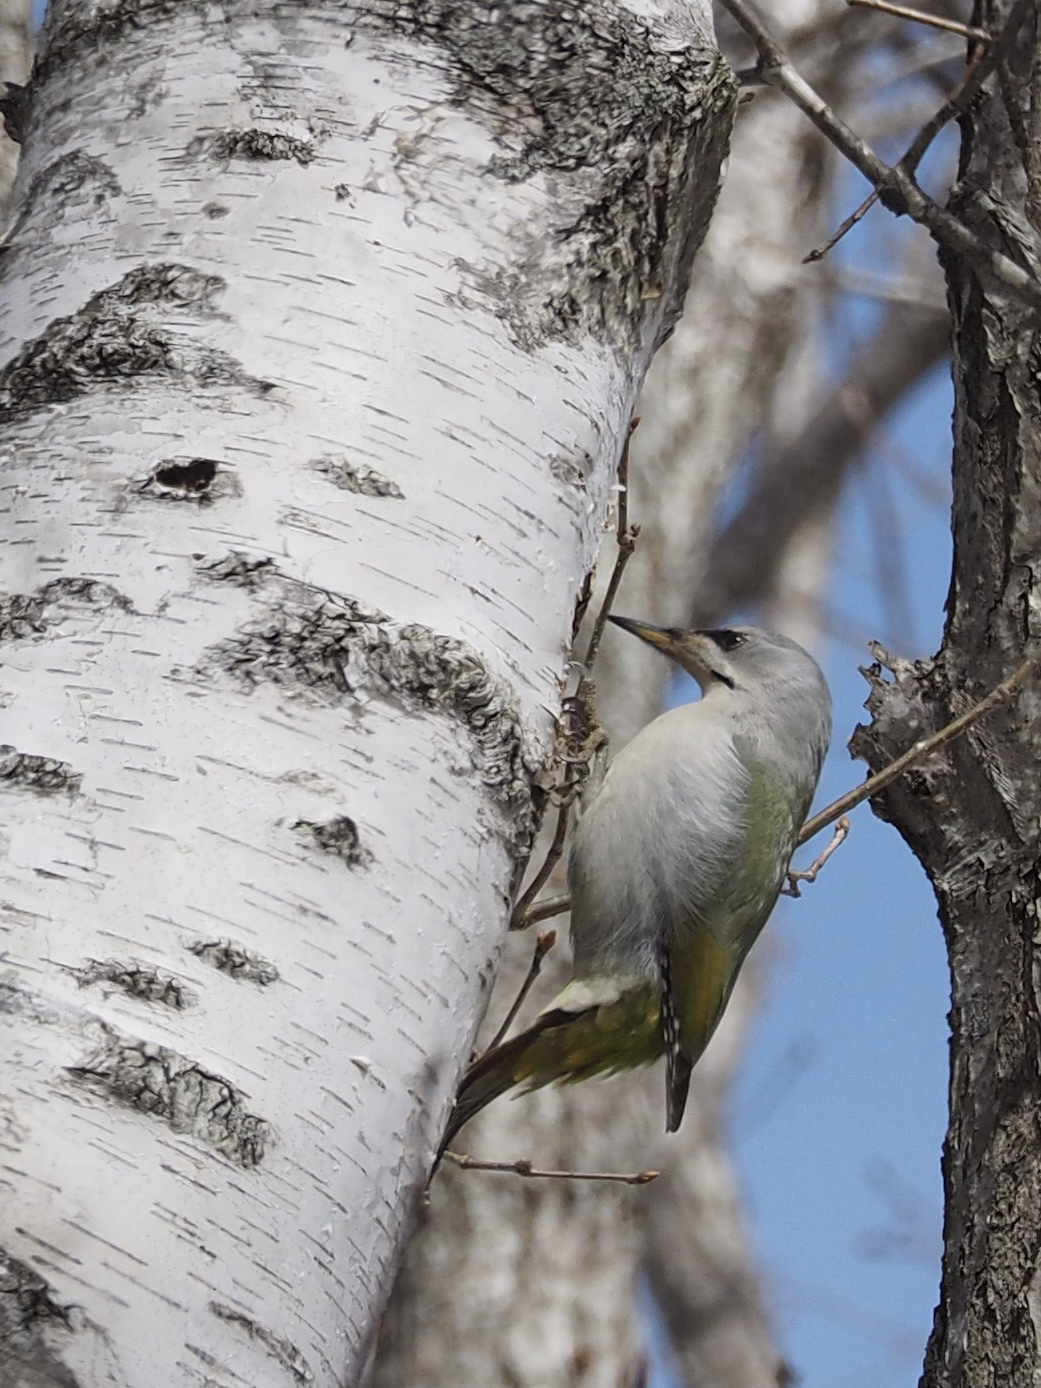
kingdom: Animalia
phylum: Chordata
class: Aves
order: Piciformes
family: Picidae
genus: Picus
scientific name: Picus canus
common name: Grey-headed woodpecker
